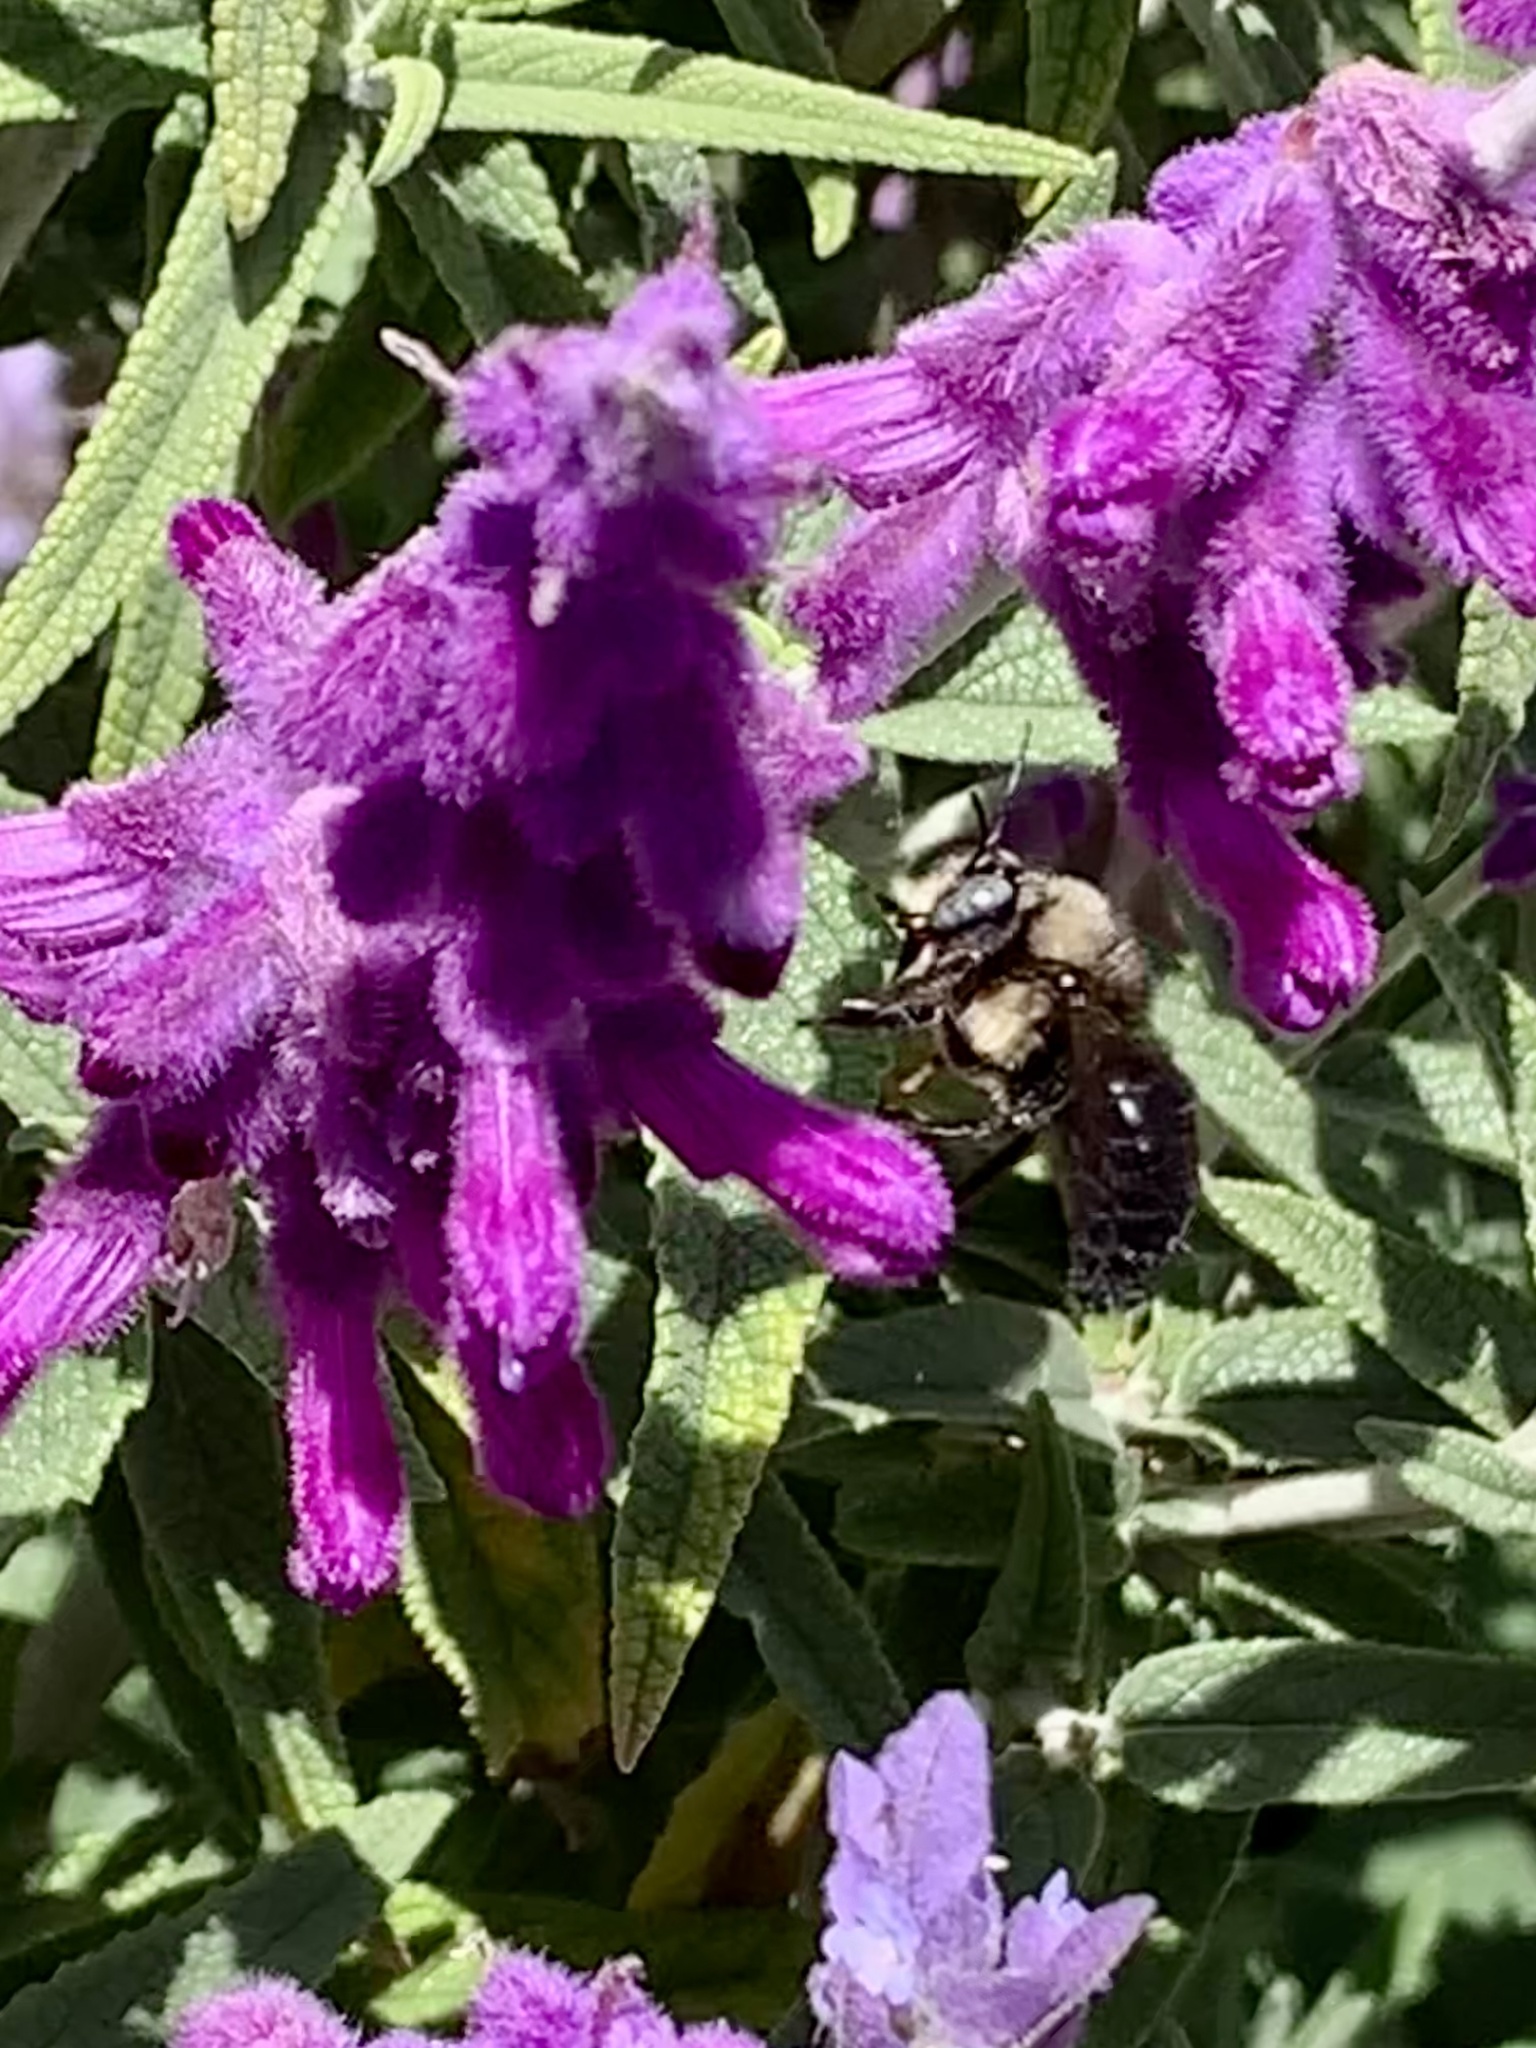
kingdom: Animalia
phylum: Arthropoda
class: Insecta
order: Hymenoptera
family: Apidae
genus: Xylocopa
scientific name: Xylocopa tabaniformis
